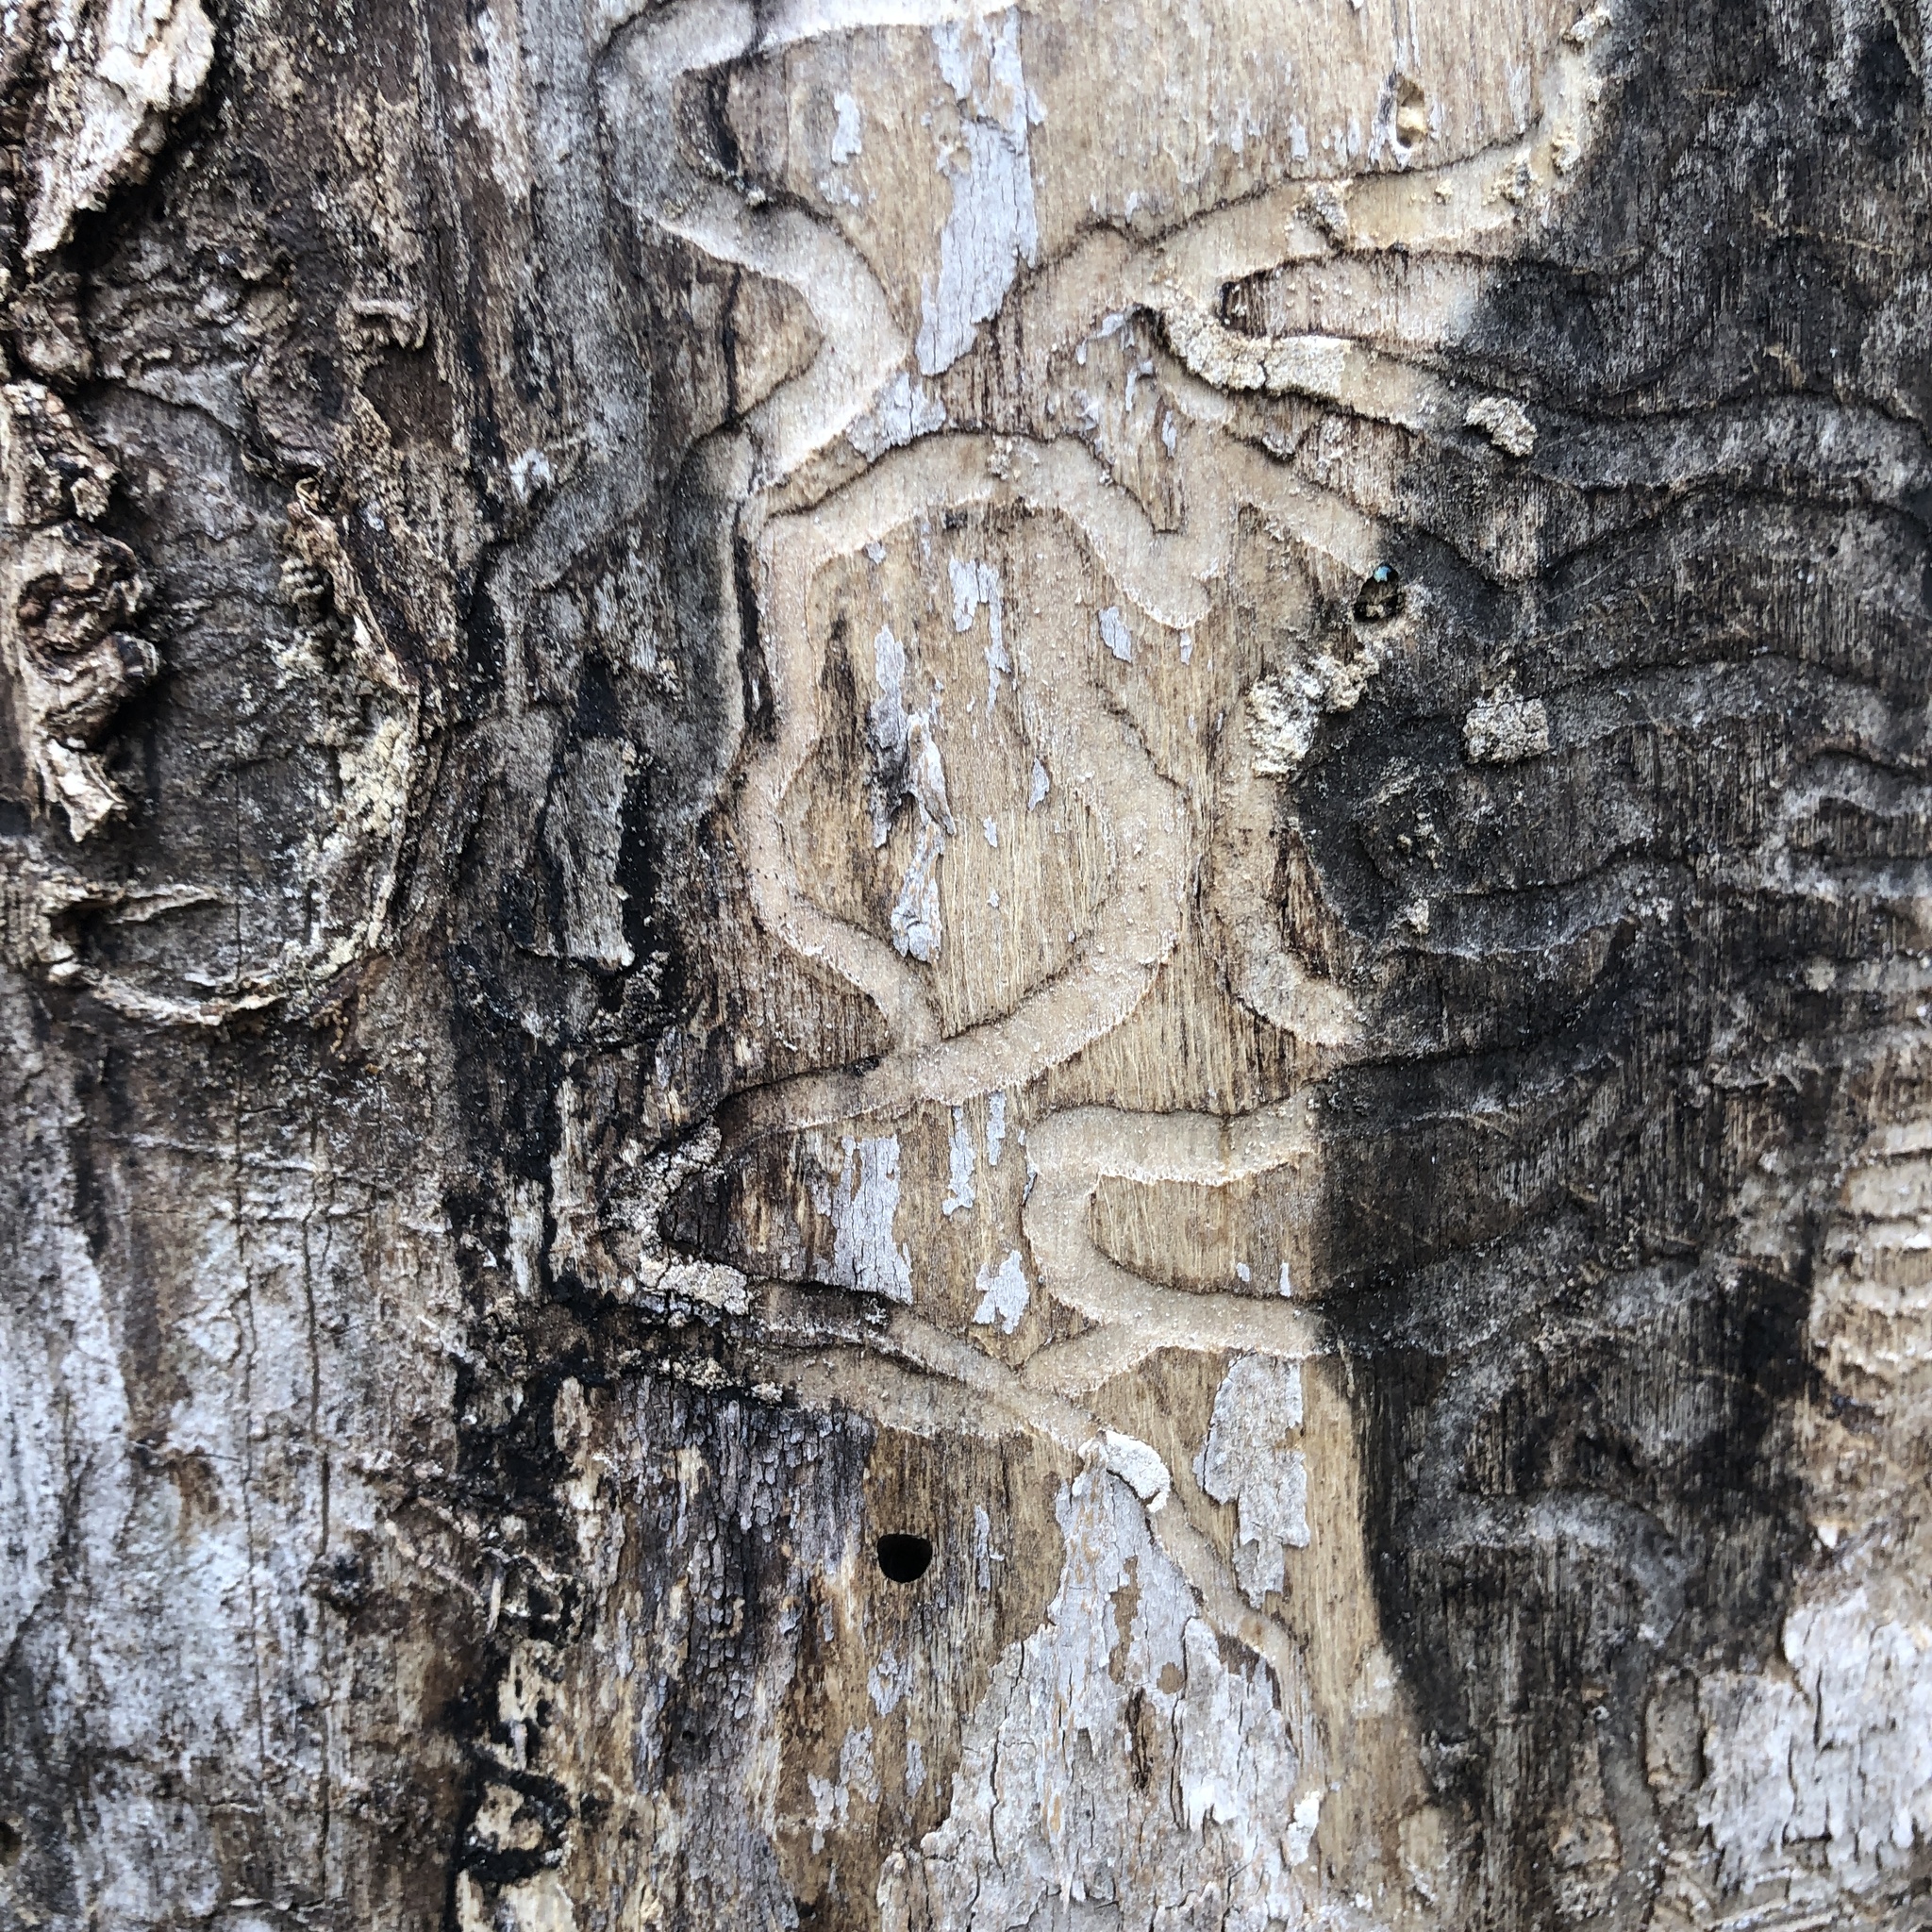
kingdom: Animalia
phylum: Arthropoda
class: Insecta
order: Coleoptera
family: Buprestidae
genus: Agrilus
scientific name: Agrilus planipennis
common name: Emerald ash borer
